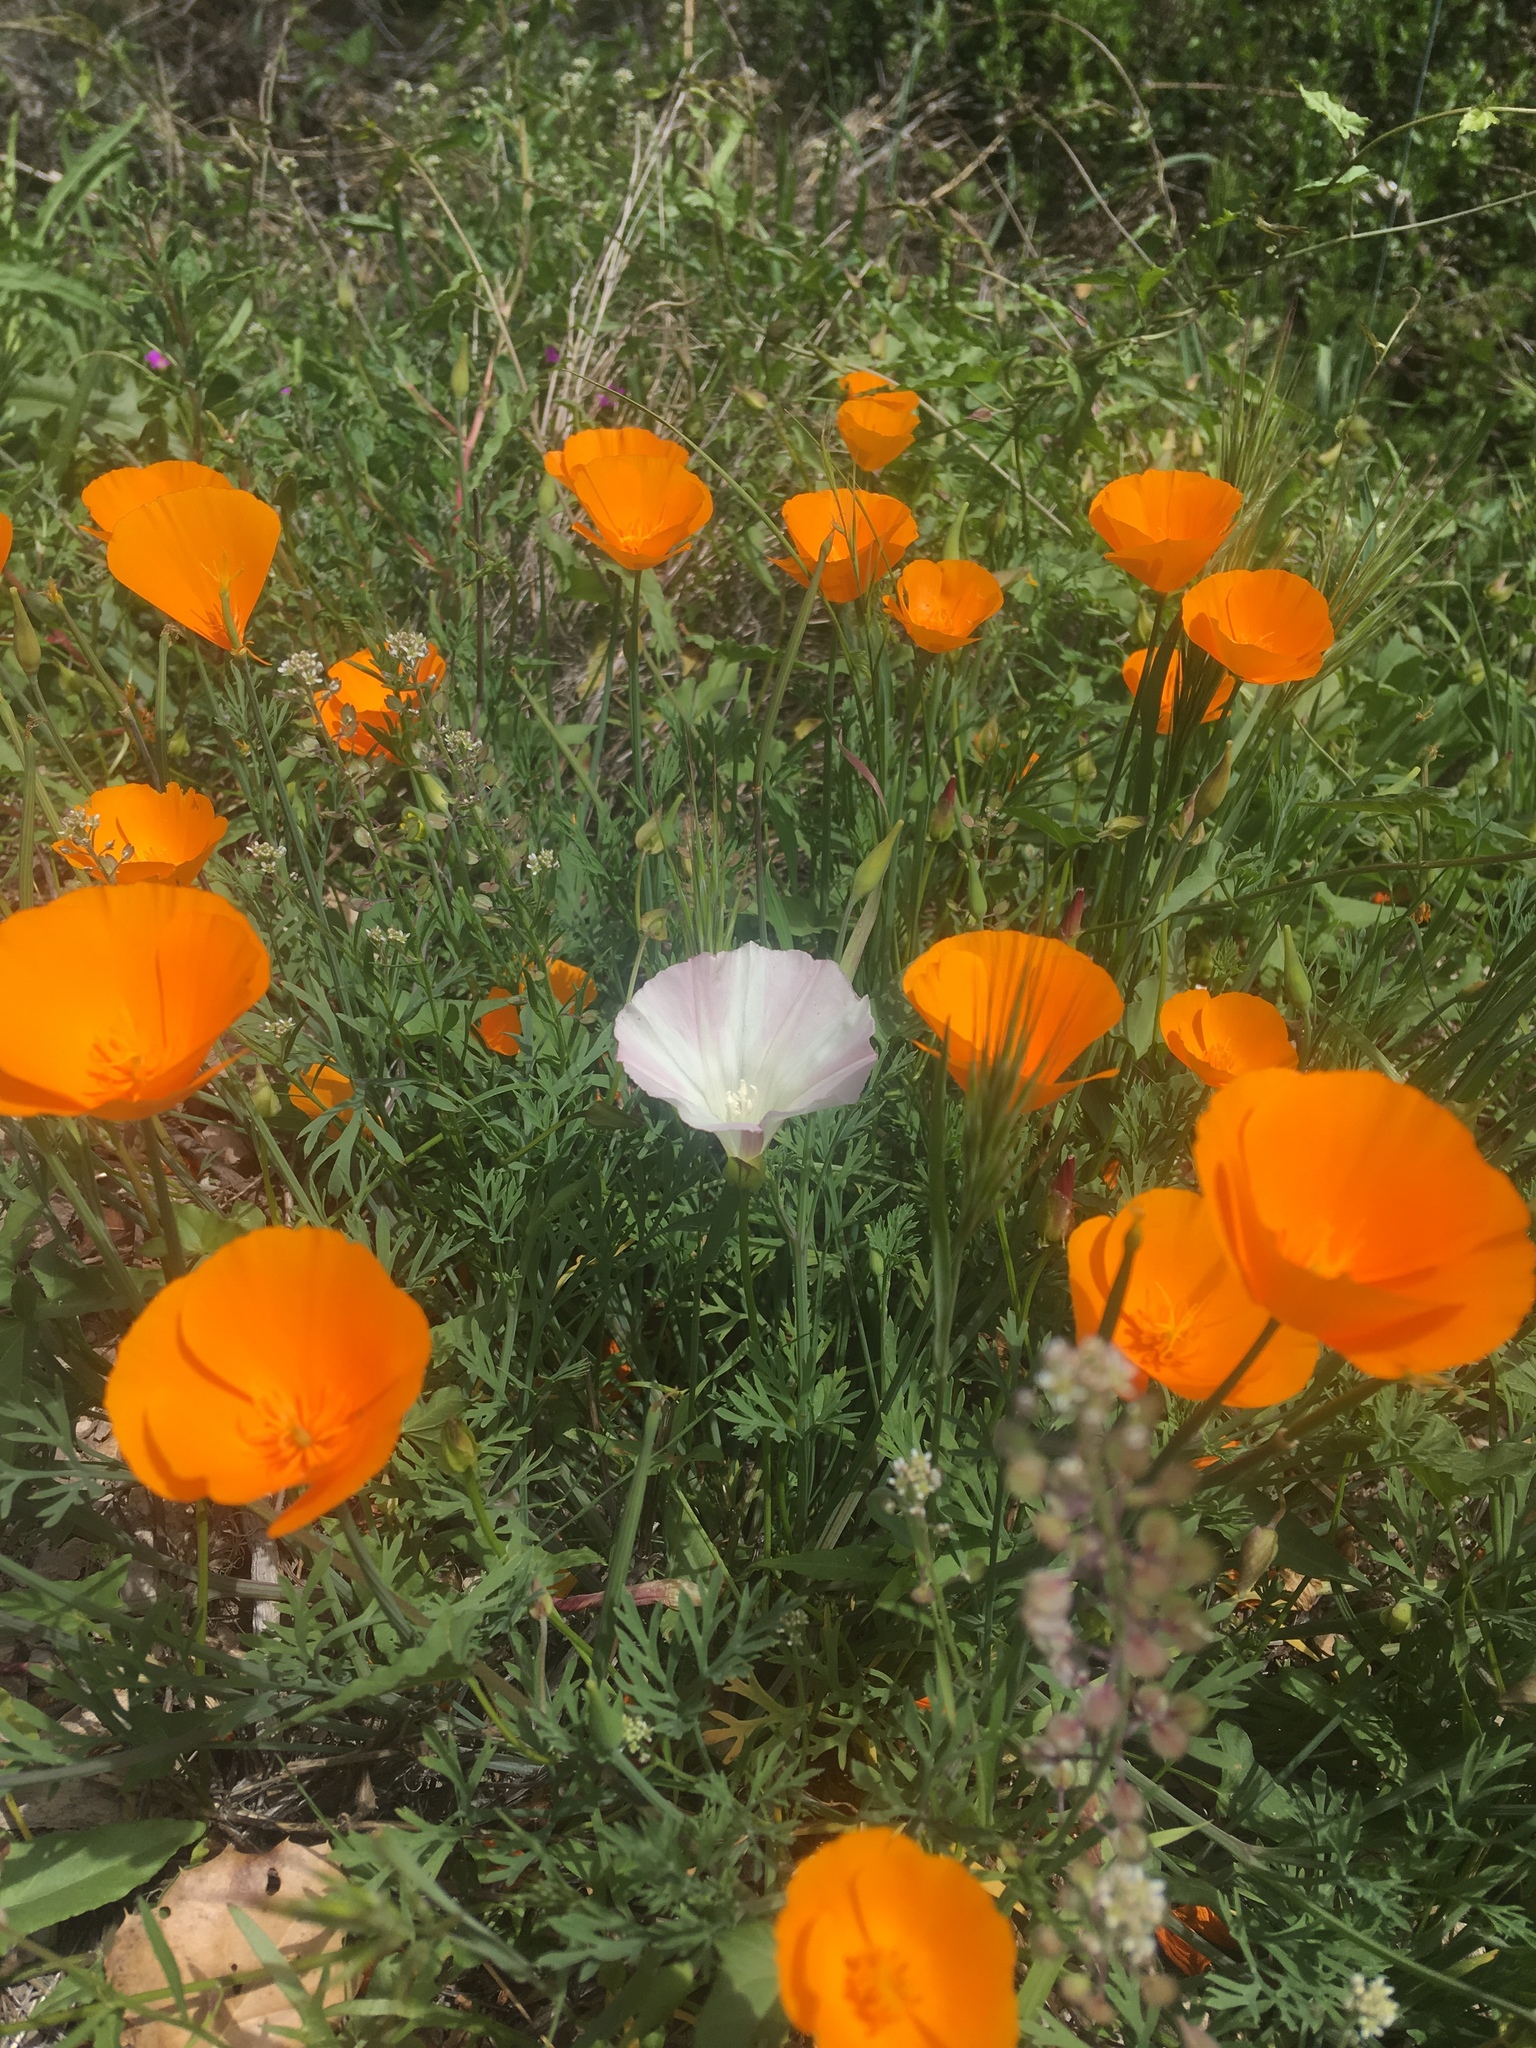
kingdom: Plantae
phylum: Tracheophyta
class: Magnoliopsida
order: Ranunculales
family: Papaveraceae
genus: Eschscholzia
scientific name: Eschscholzia californica
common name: California poppy
